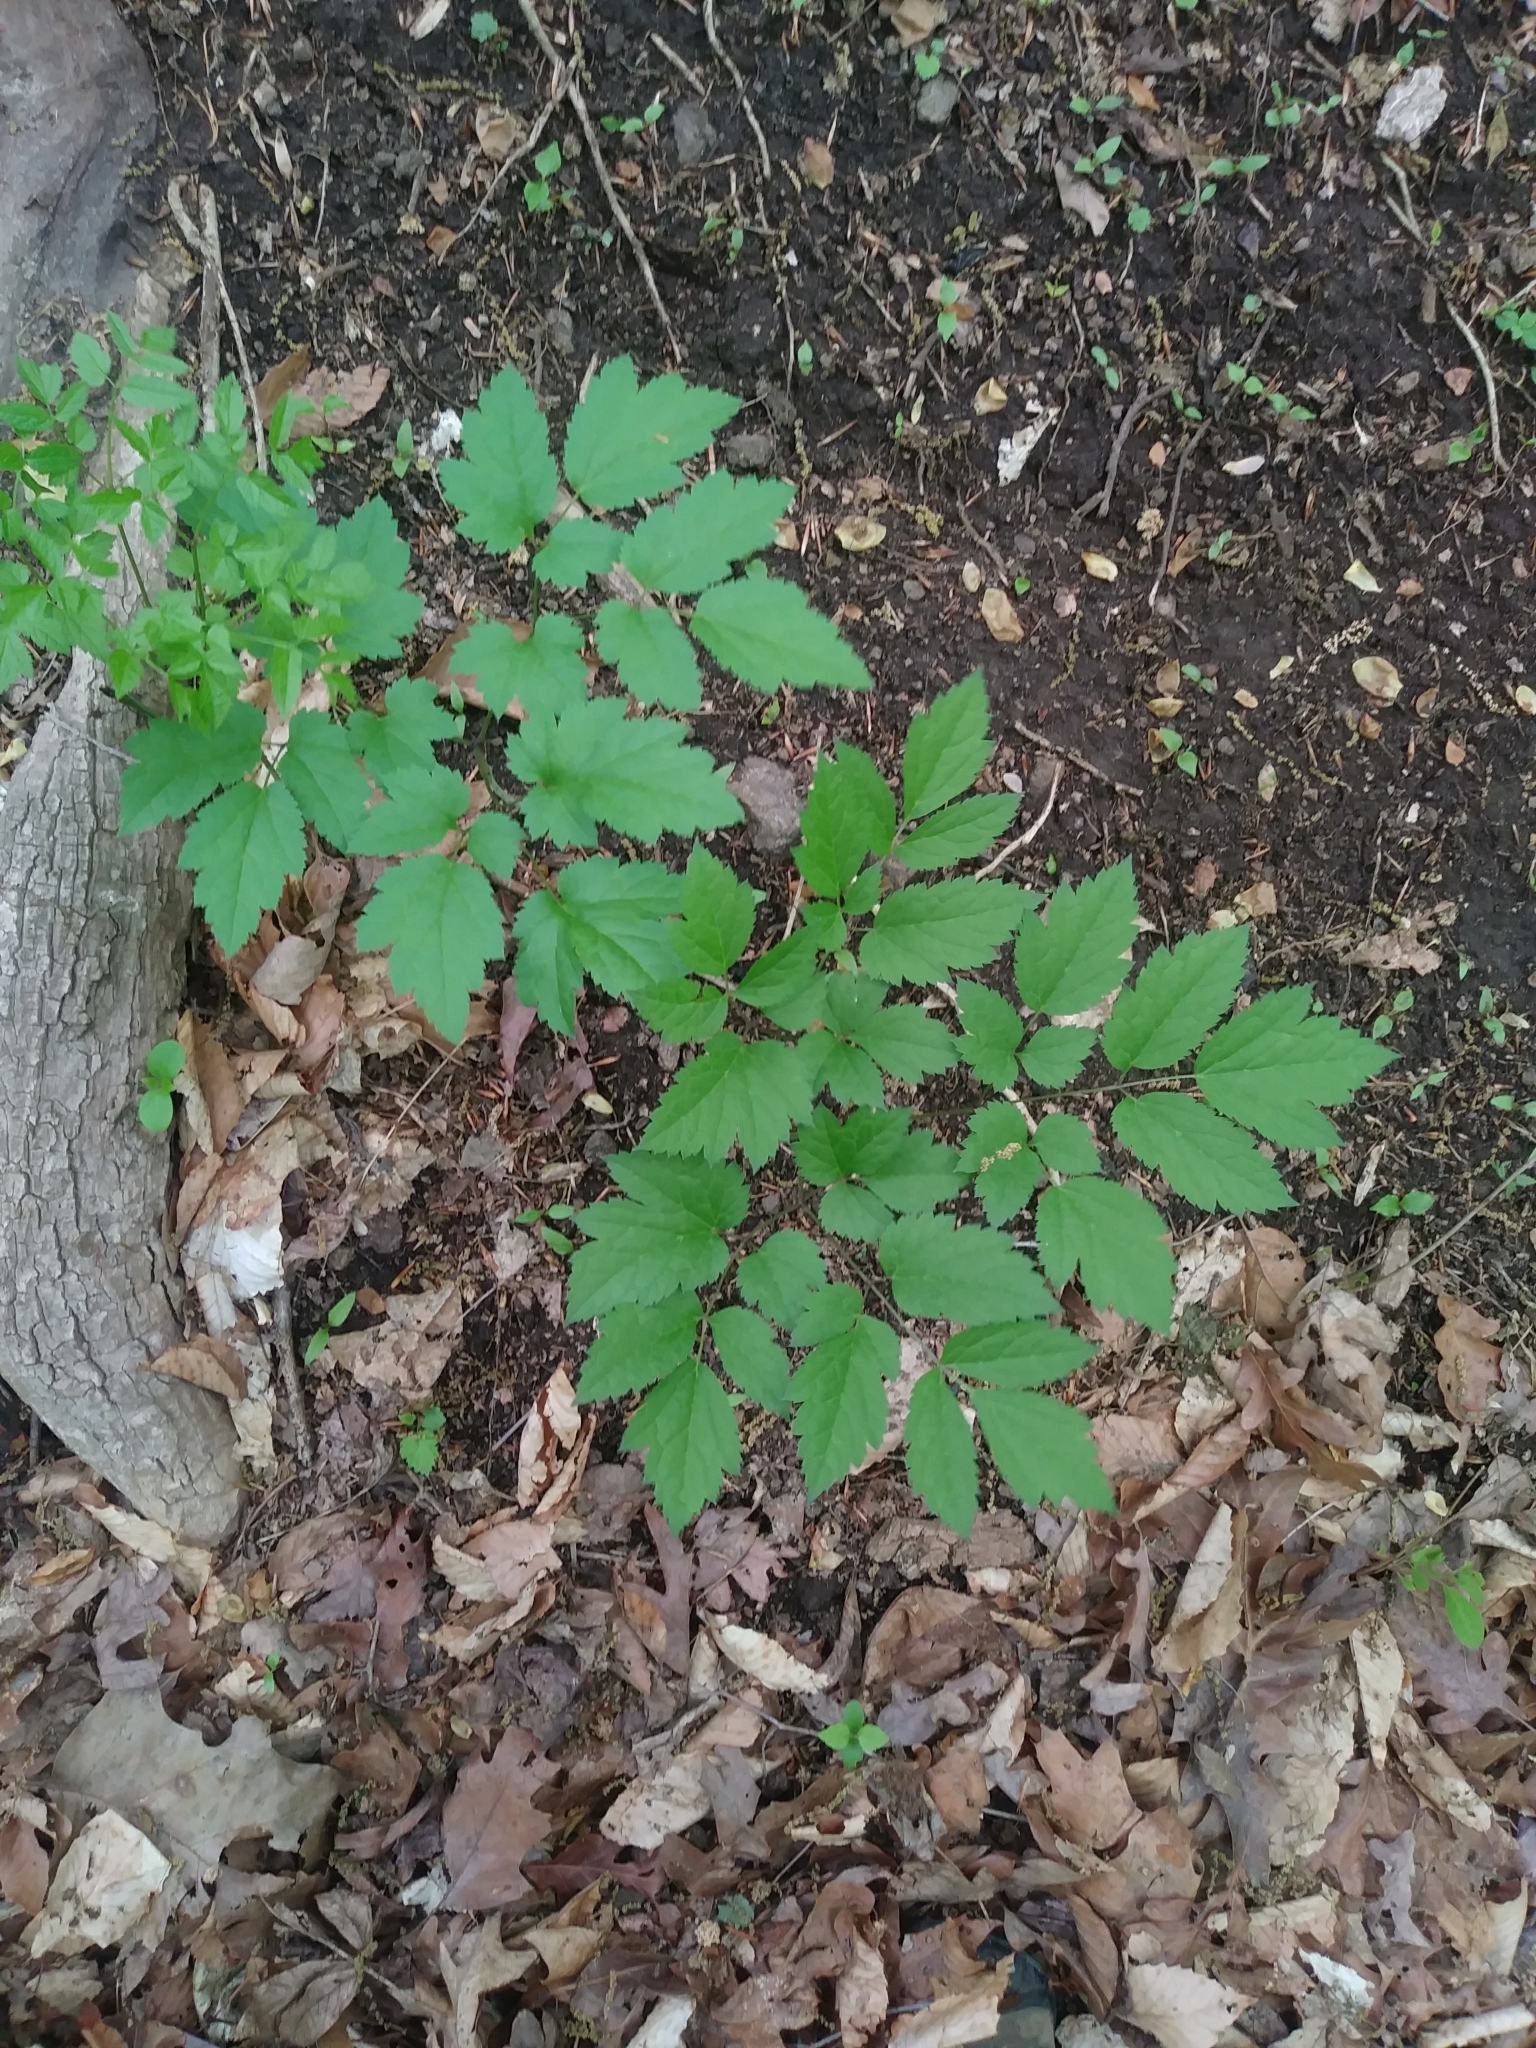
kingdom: Plantae
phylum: Tracheophyta
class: Magnoliopsida
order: Ranunculales
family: Ranunculaceae
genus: Actaea
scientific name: Actaea racemosa
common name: Black cohosh
